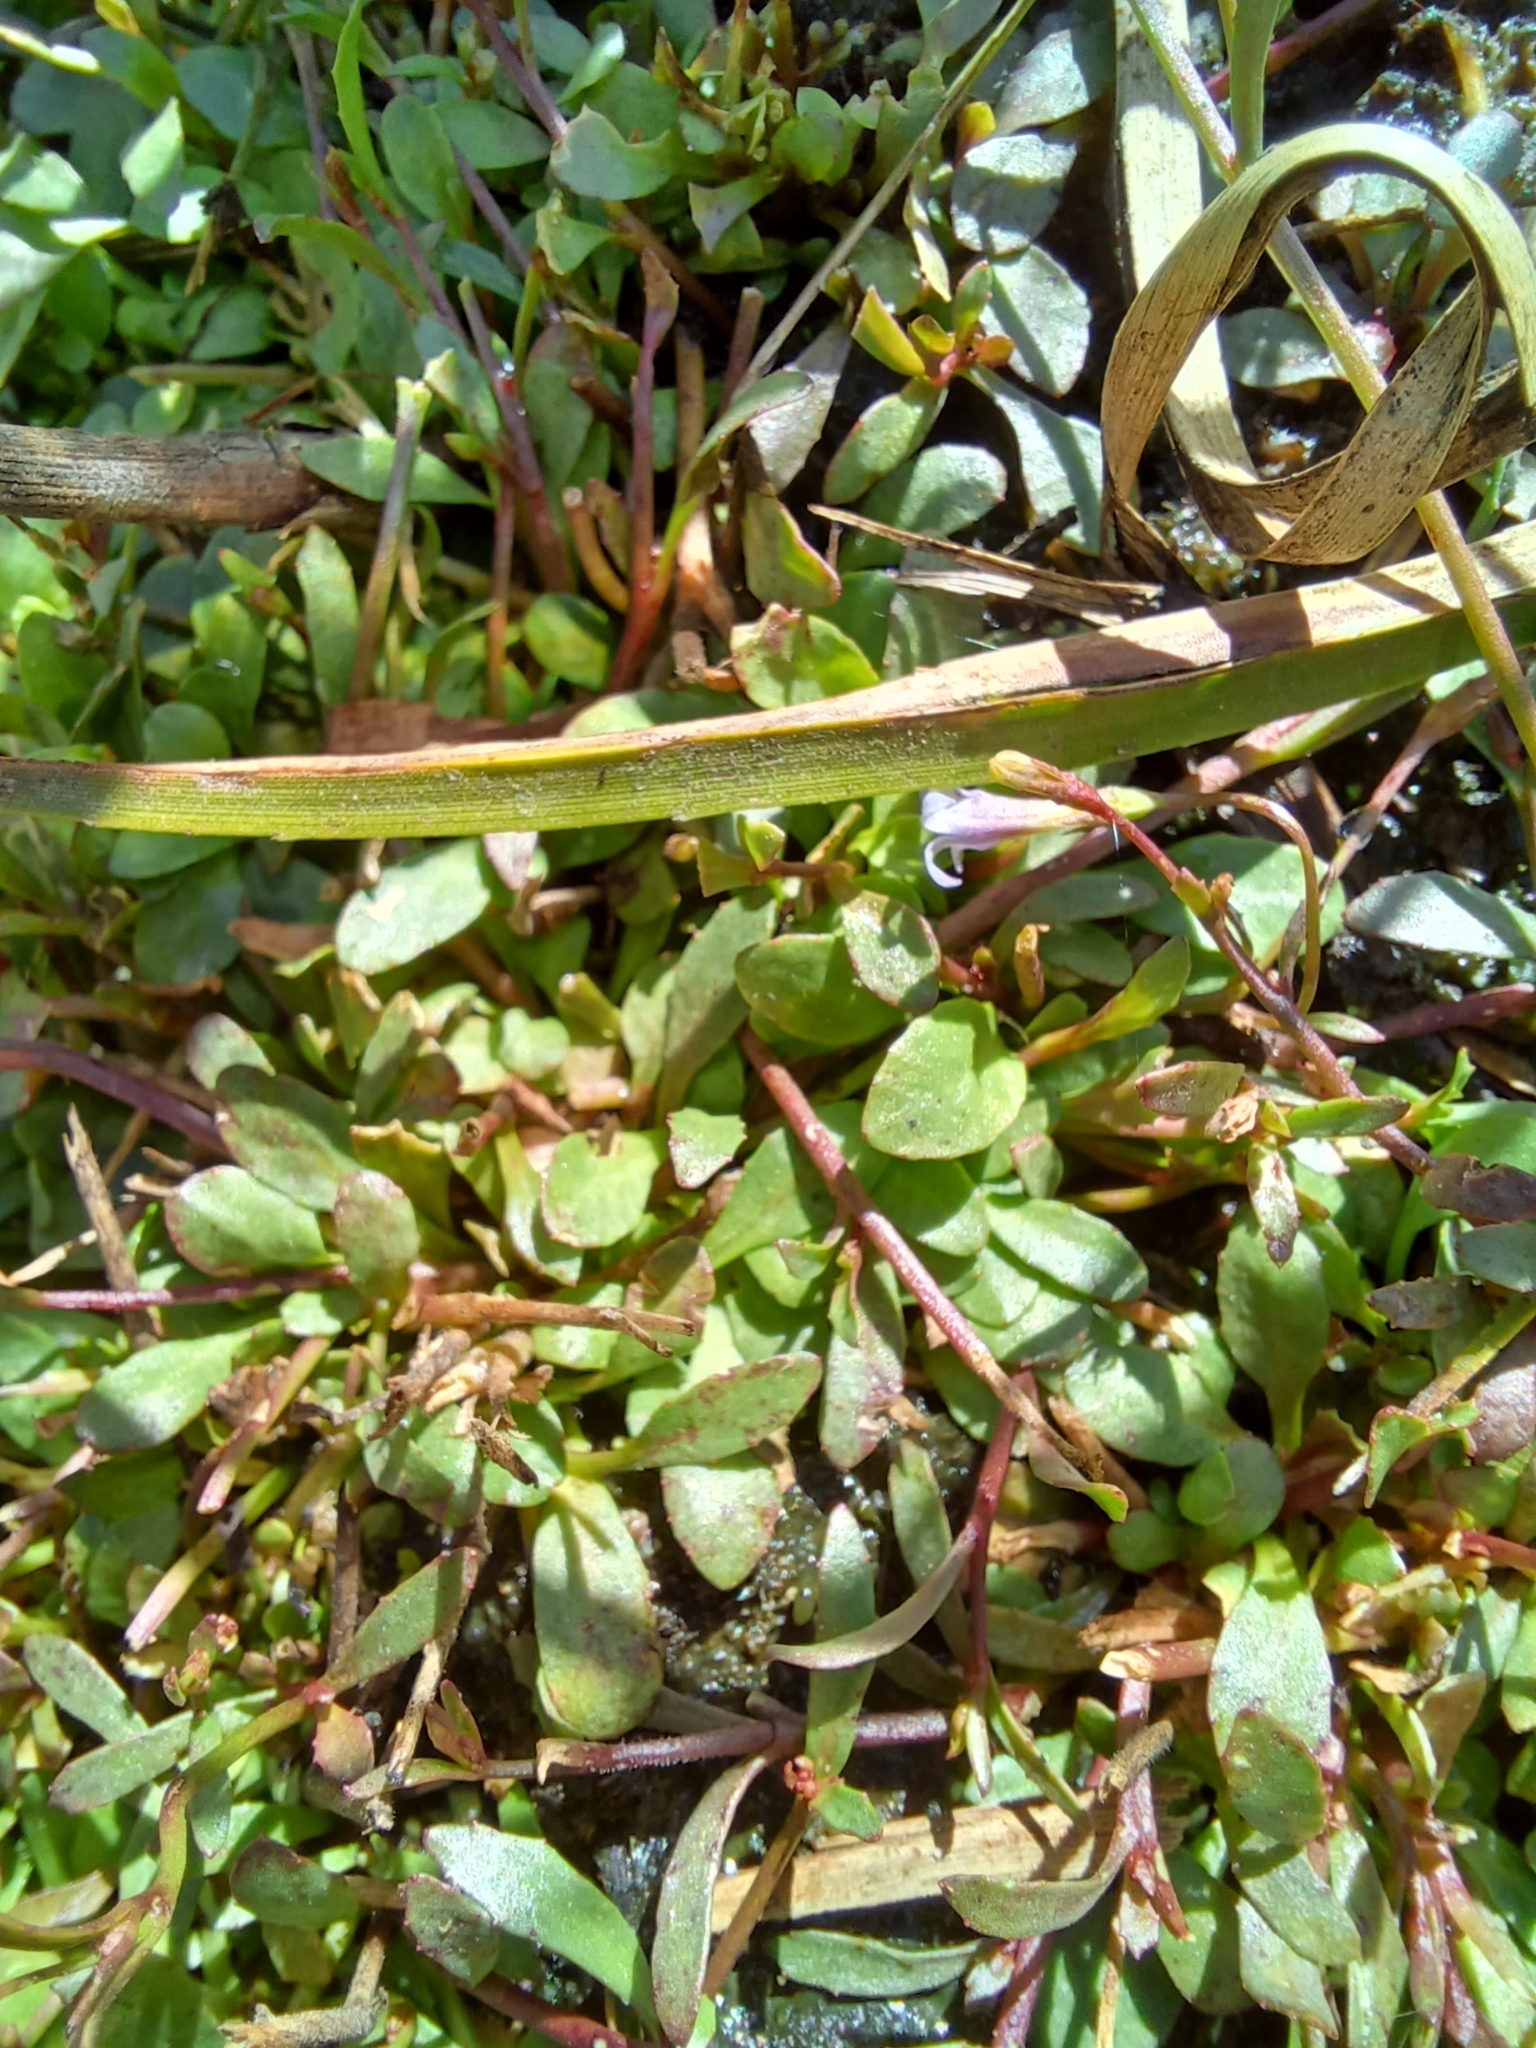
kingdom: Plantae
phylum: Tracheophyta
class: Magnoliopsida
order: Asterales
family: Campanulaceae
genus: Wimmerella
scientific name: Wimmerella arabidea
